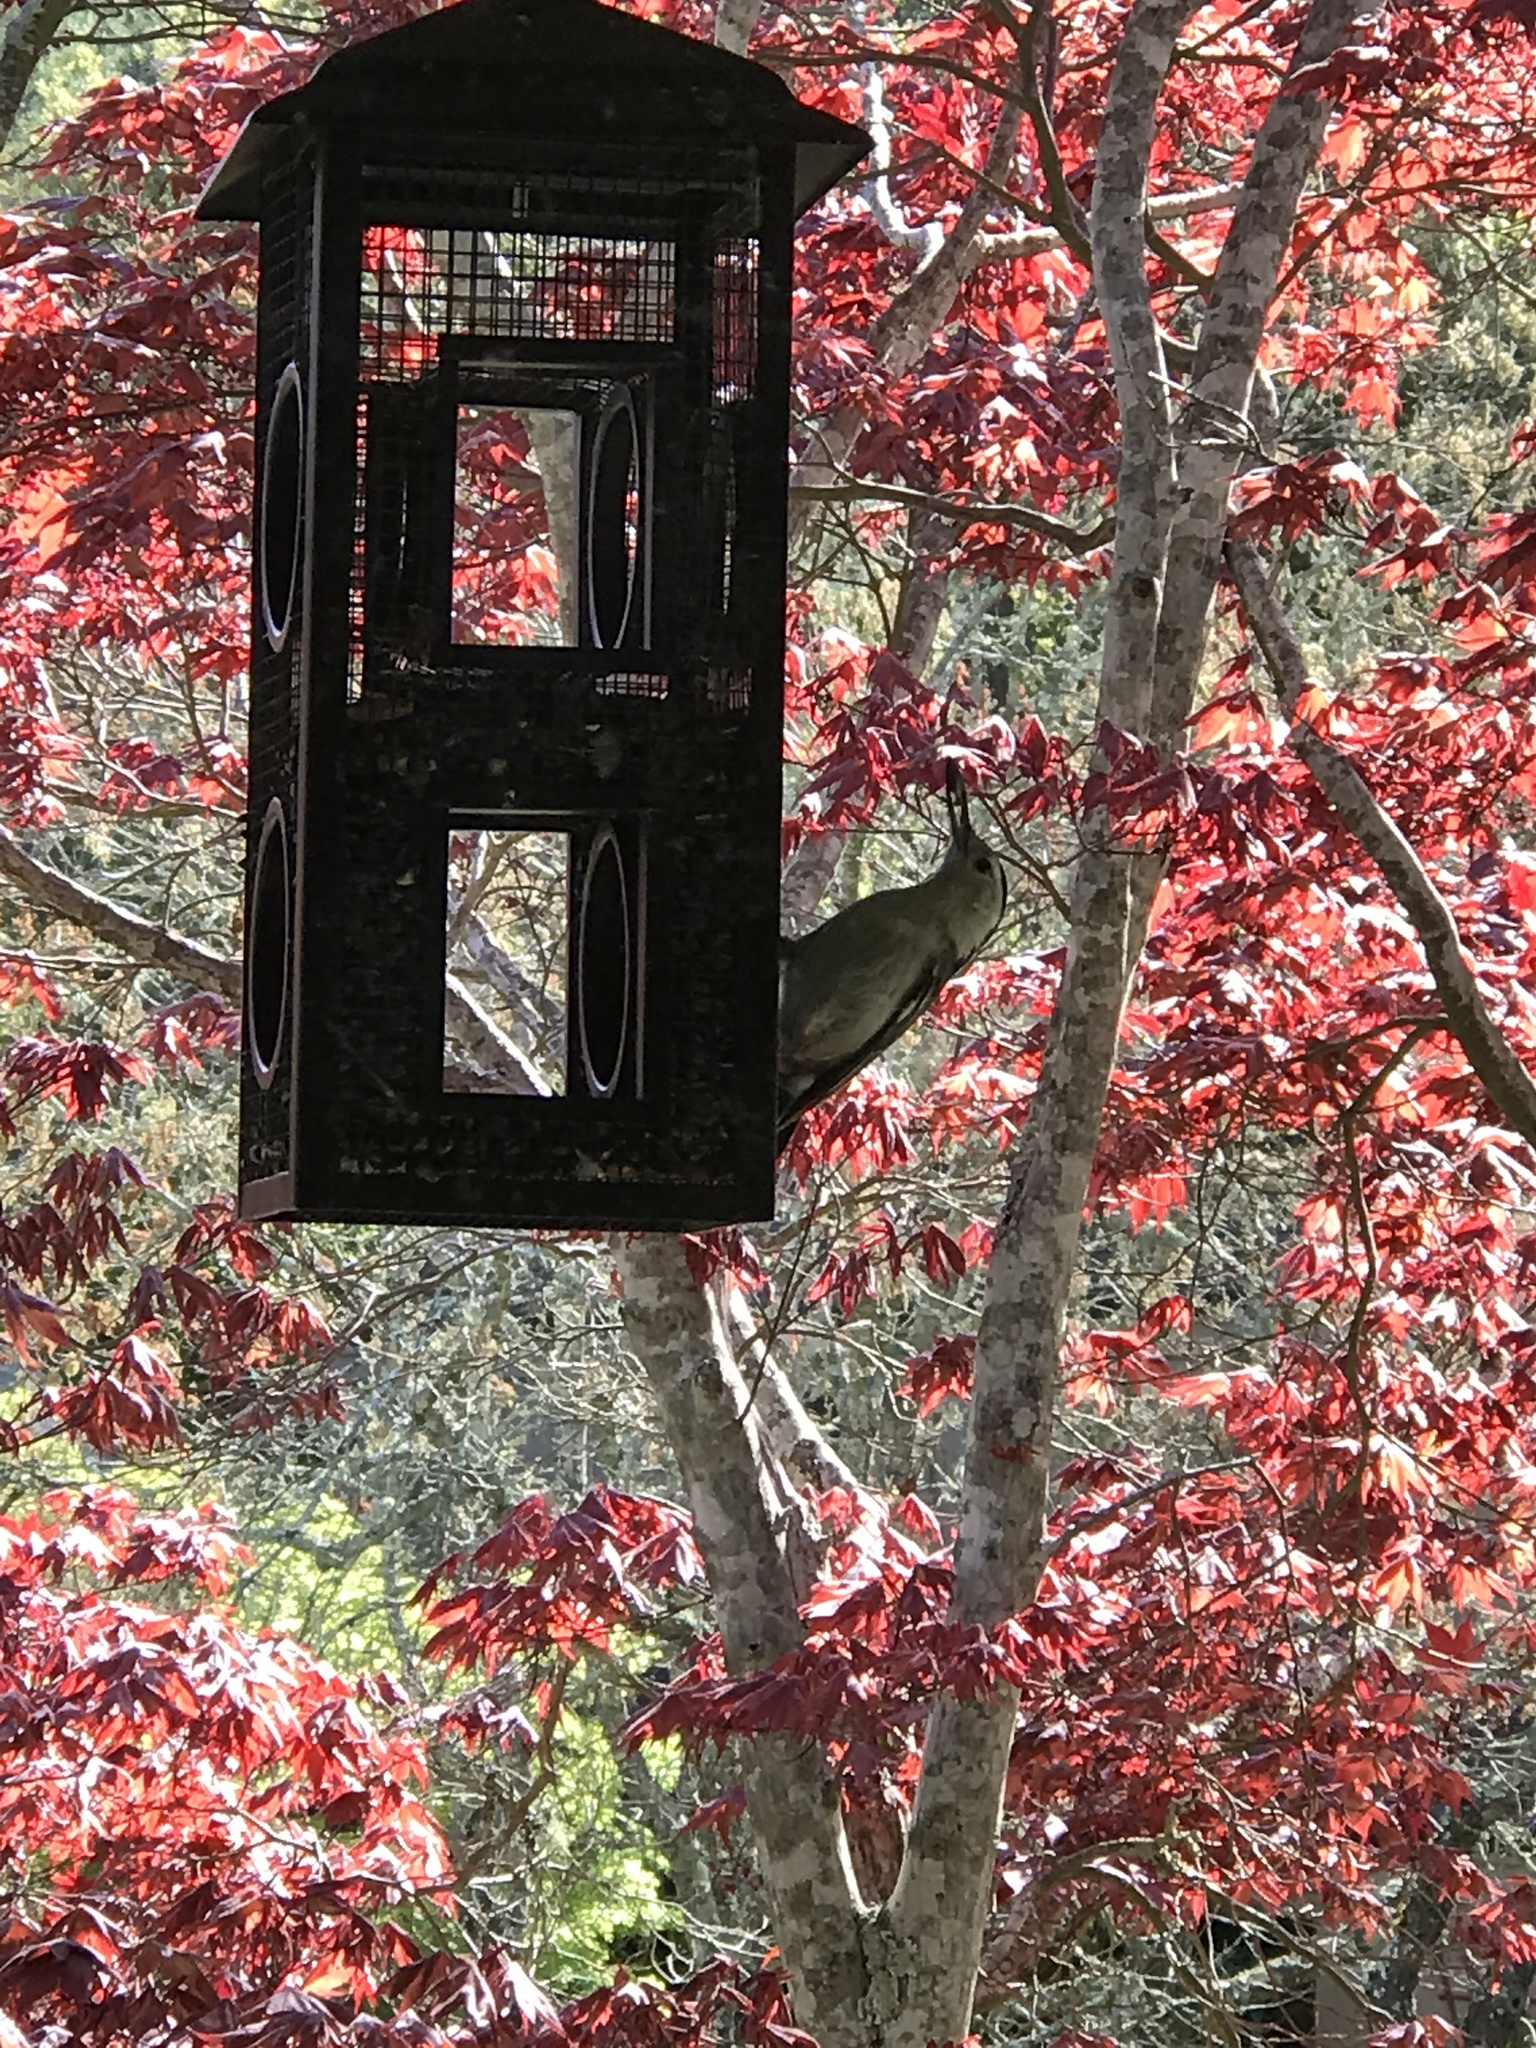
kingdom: Animalia
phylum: Chordata
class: Aves
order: Passeriformes
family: Sittidae
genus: Sitta
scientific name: Sitta carolinensis
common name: White-breasted nuthatch
